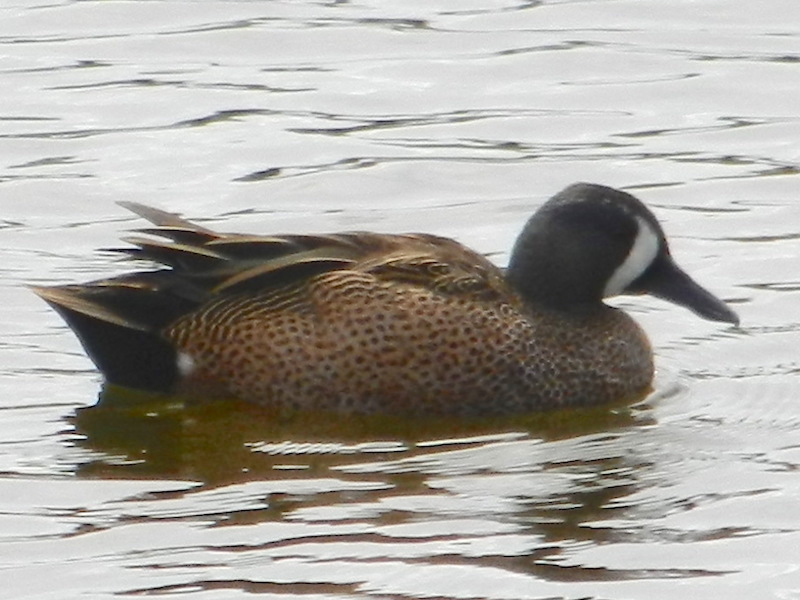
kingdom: Animalia
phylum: Chordata
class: Aves
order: Anseriformes
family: Anatidae
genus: Spatula
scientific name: Spatula discors
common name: Blue-winged teal
